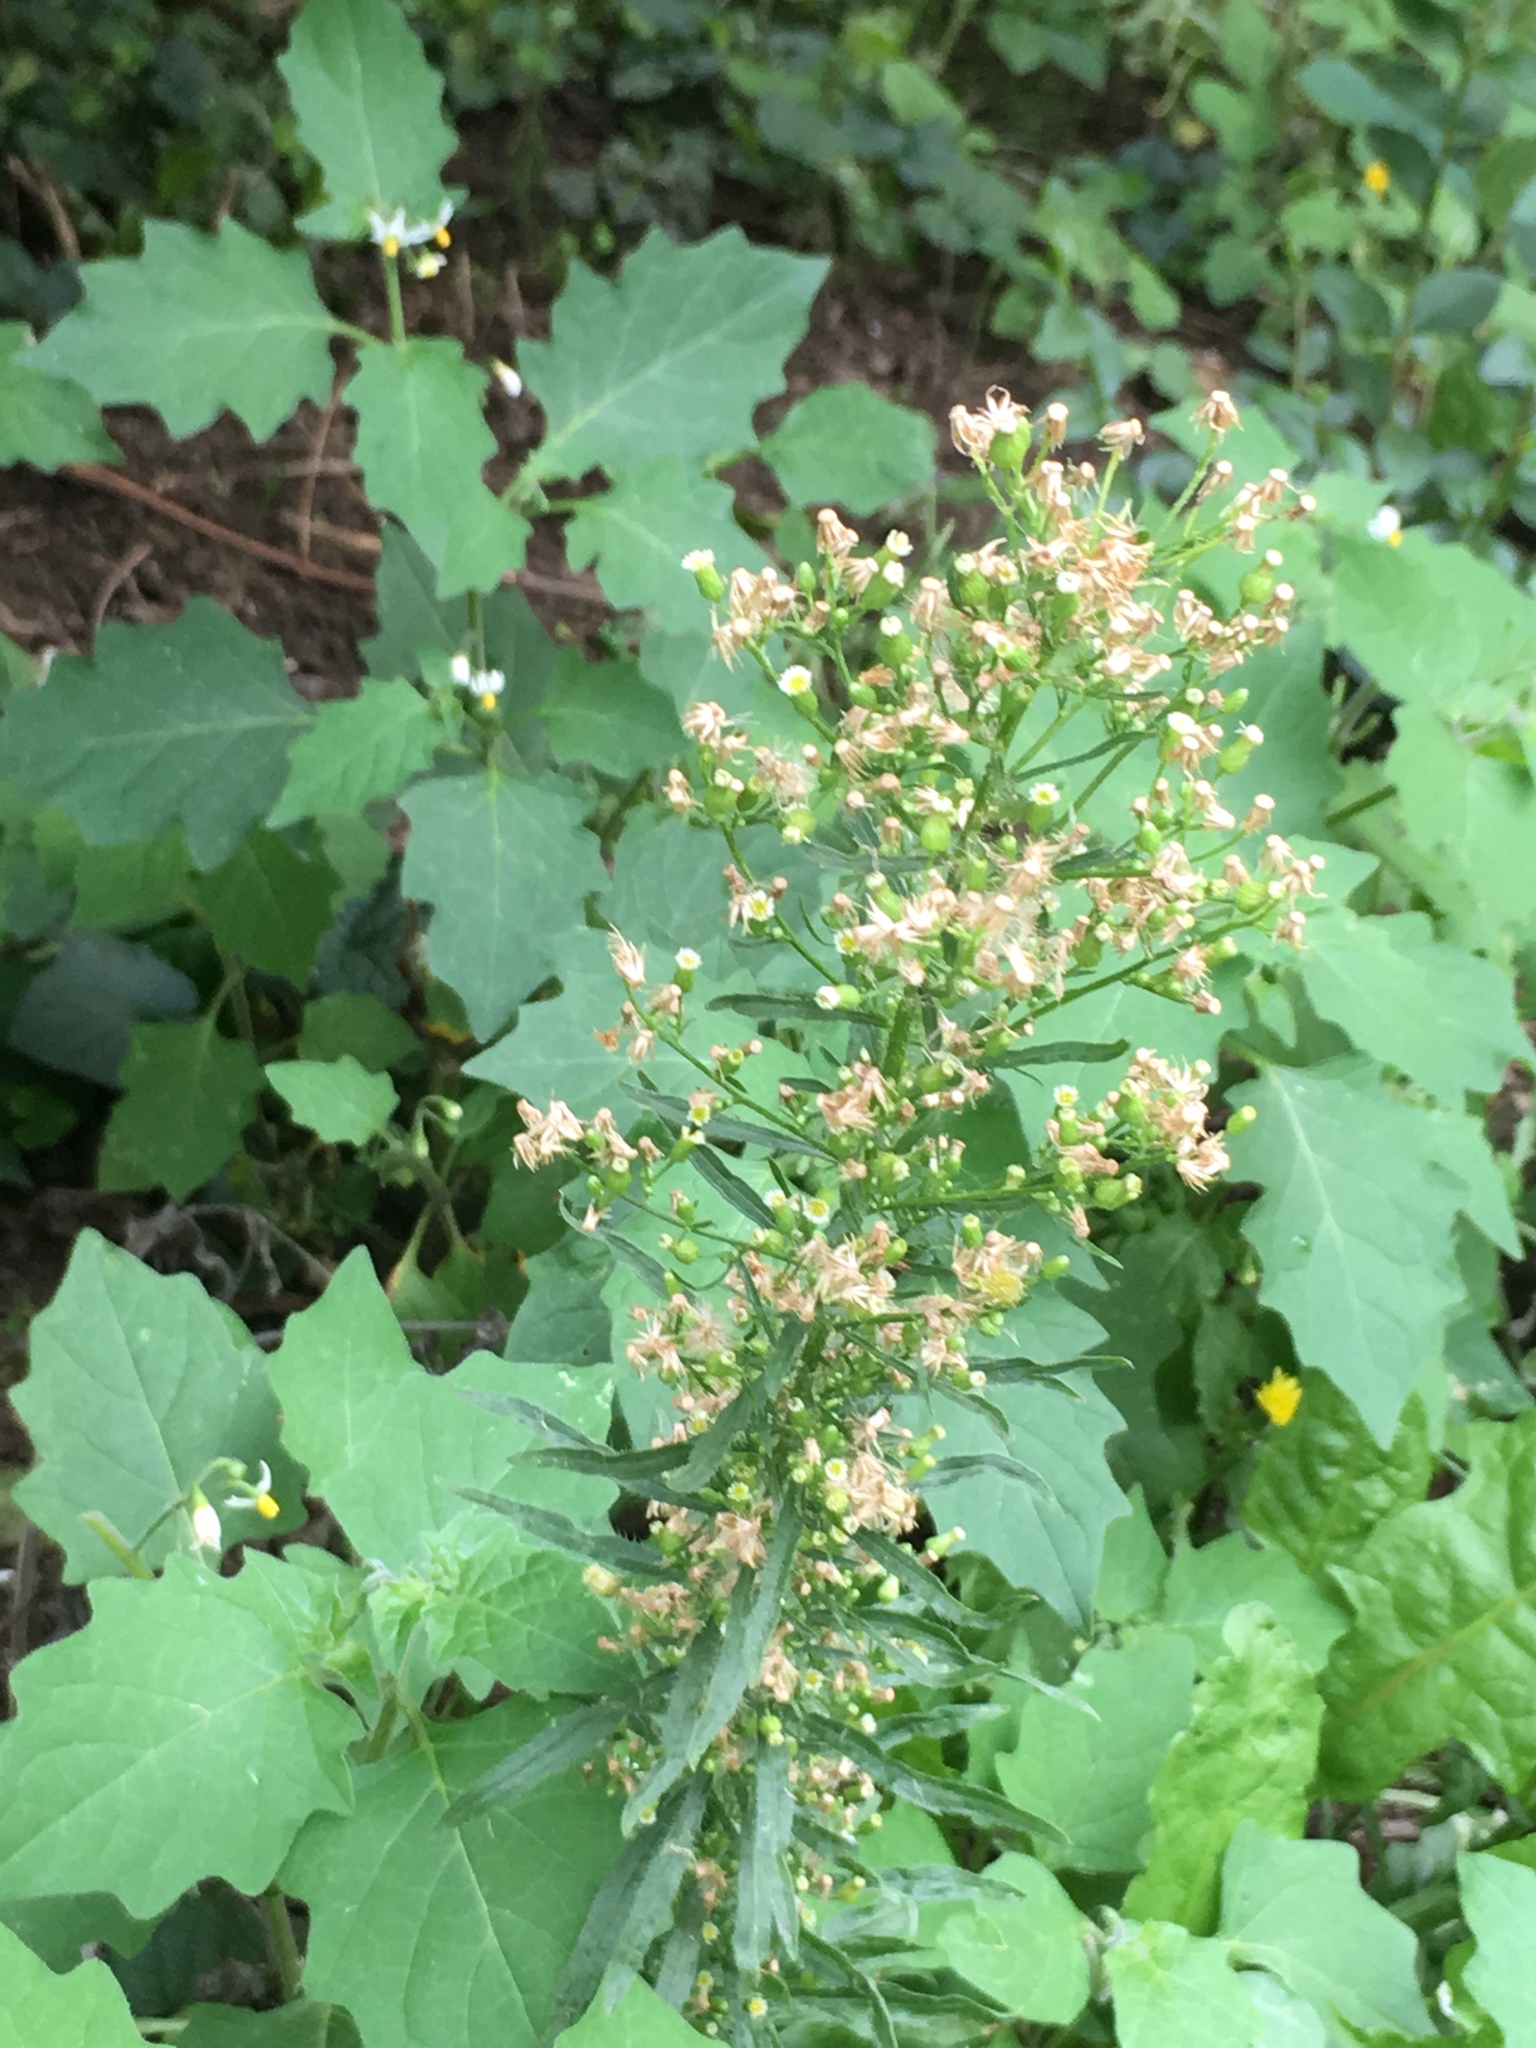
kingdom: Plantae
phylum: Tracheophyta
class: Magnoliopsida
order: Asterales
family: Asteraceae
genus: Erigeron
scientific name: Erigeron canadensis
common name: Canadian fleabane
